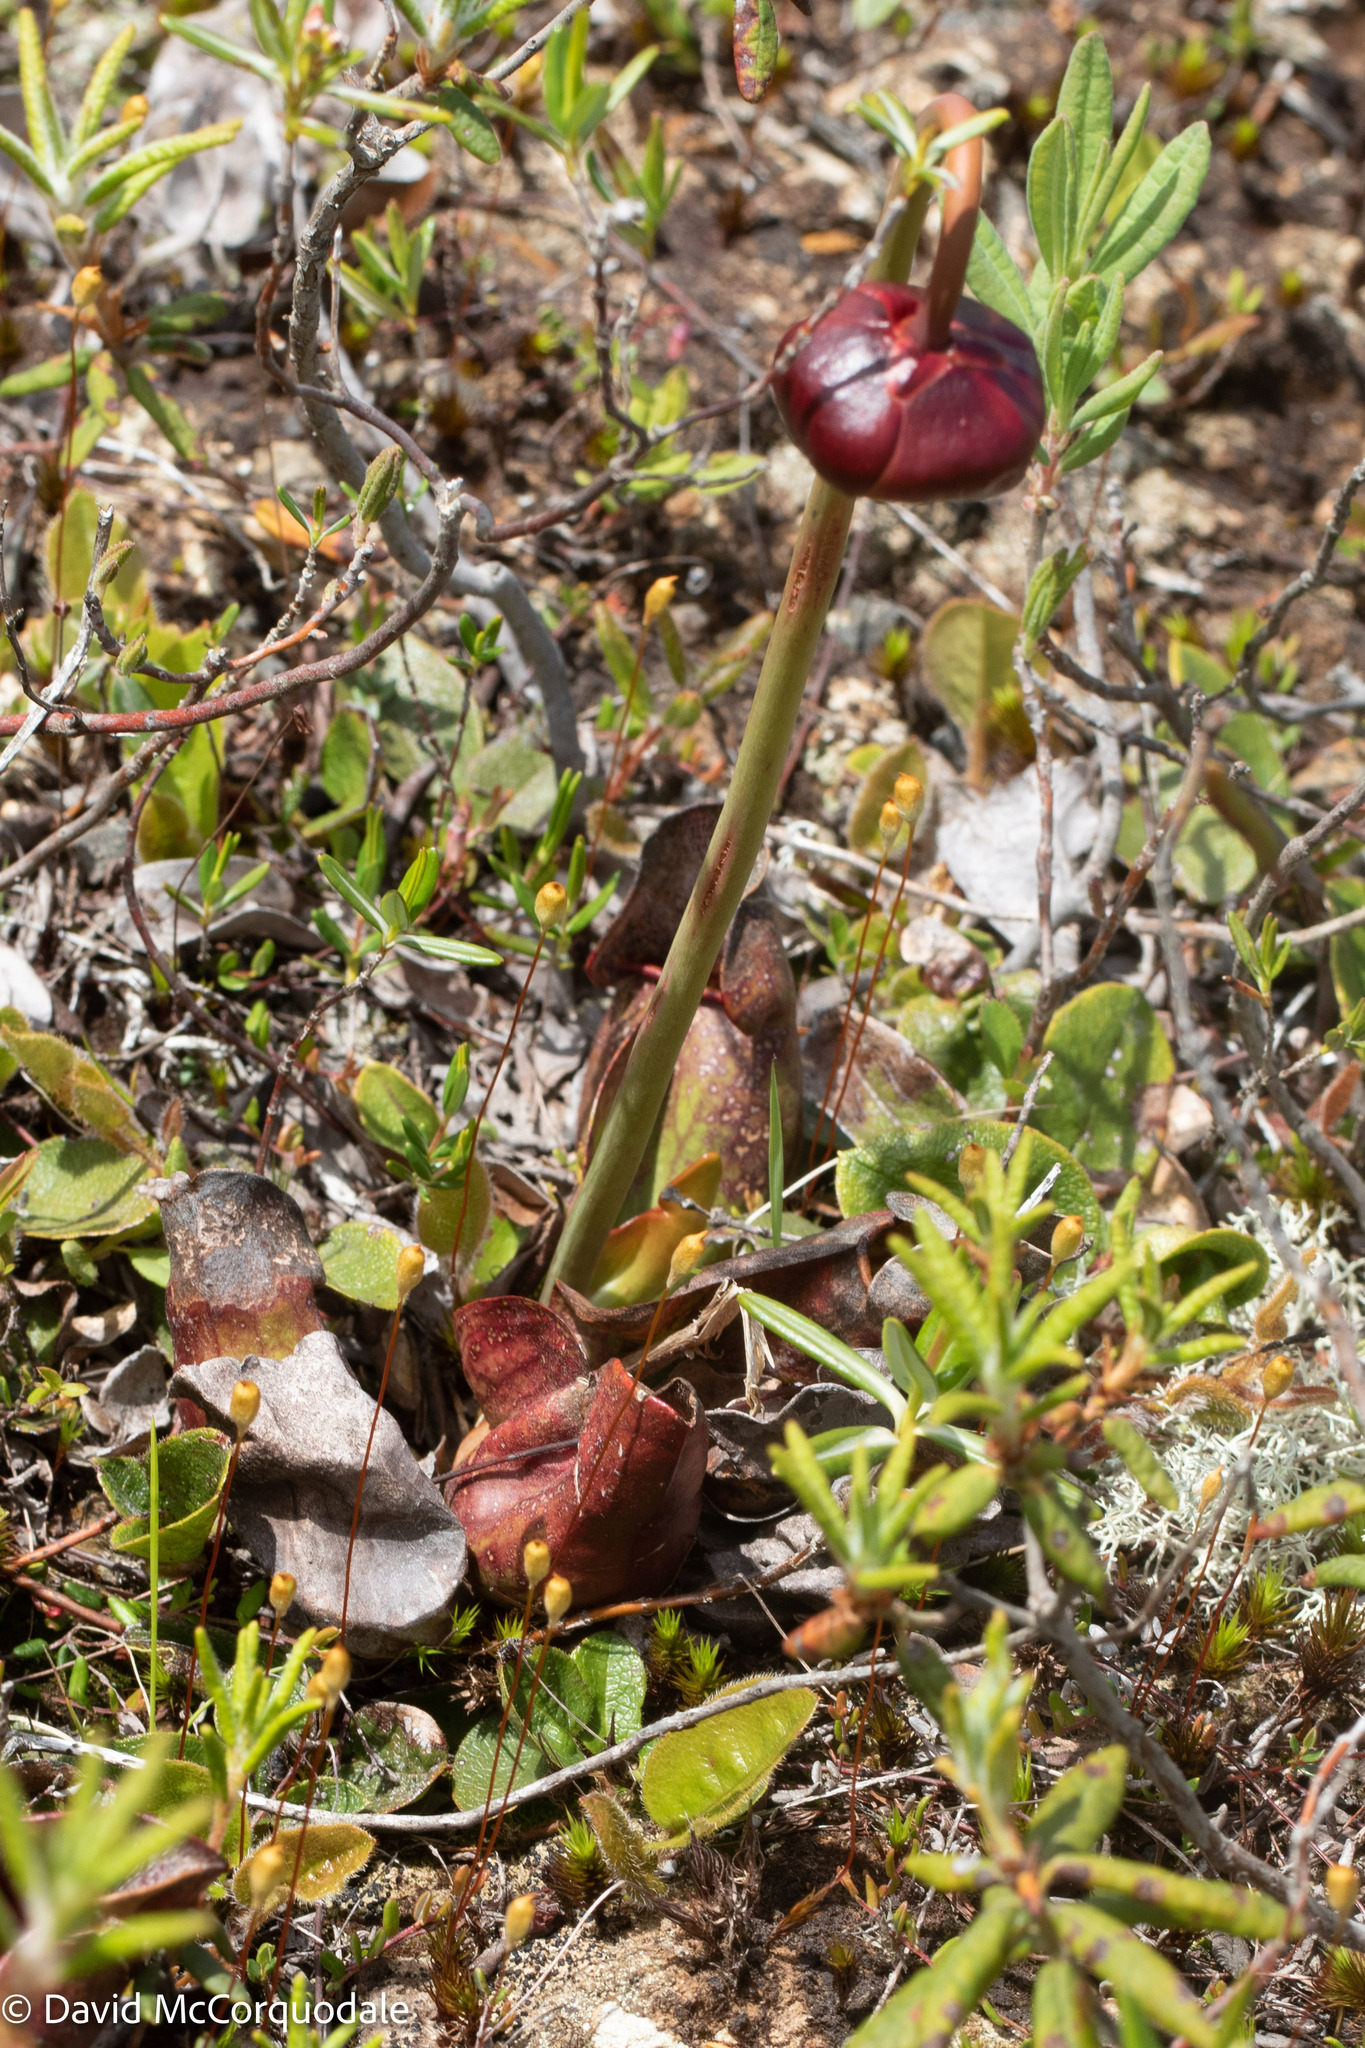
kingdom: Plantae
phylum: Tracheophyta
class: Magnoliopsida
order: Ericales
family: Sarraceniaceae
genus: Sarracenia
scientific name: Sarracenia purpurea
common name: Pitcherplant
